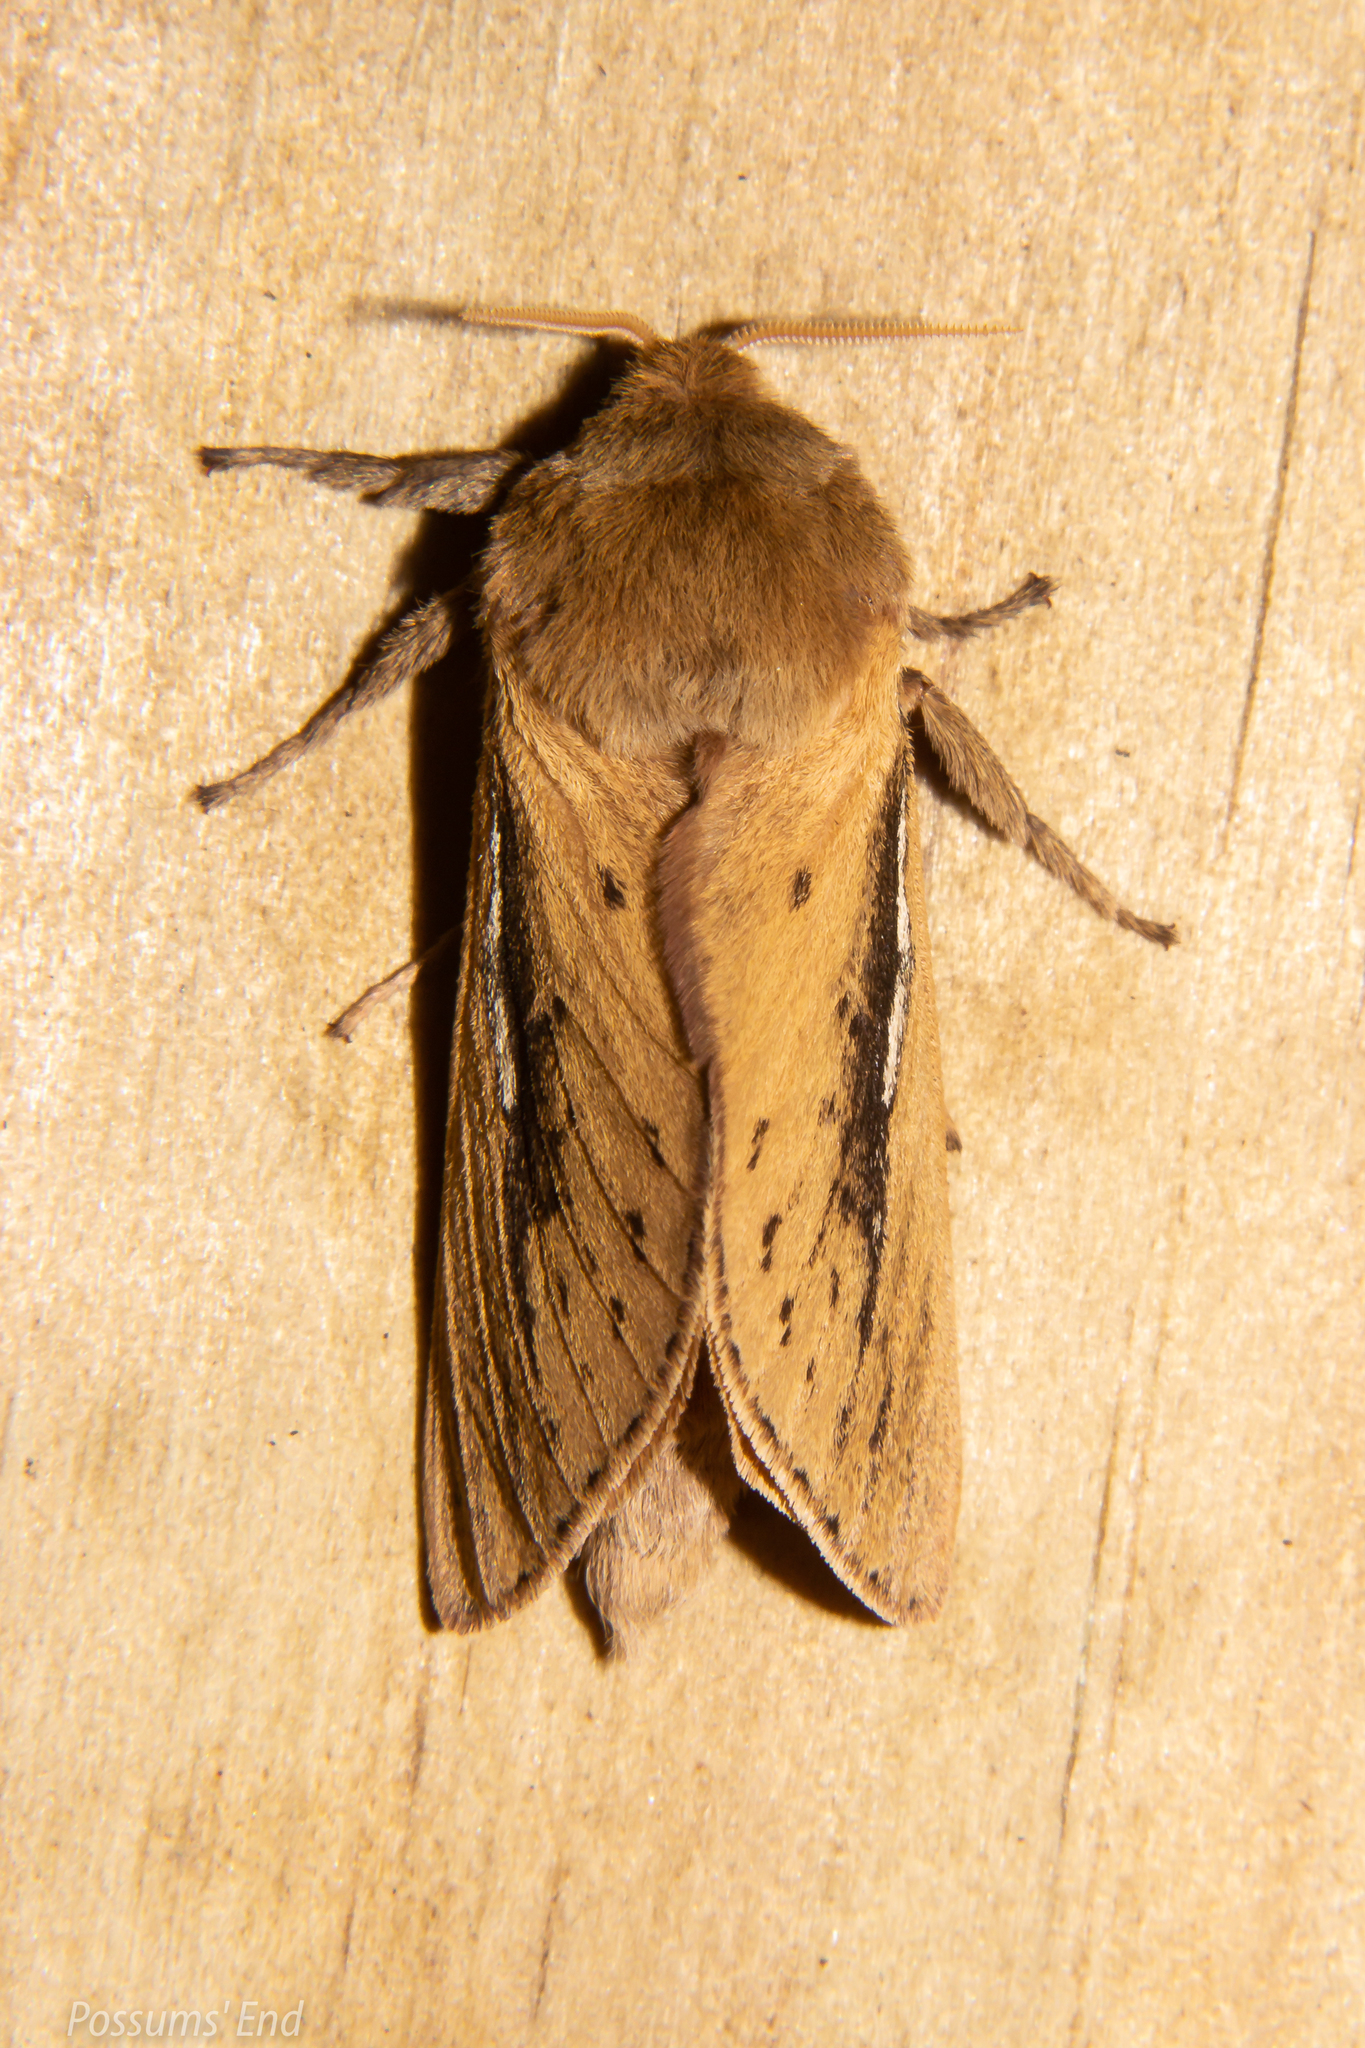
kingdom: Animalia
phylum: Arthropoda
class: Insecta
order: Lepidoptera
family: Hepialidae
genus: Wiseana
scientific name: Wiseana umbraculatus
